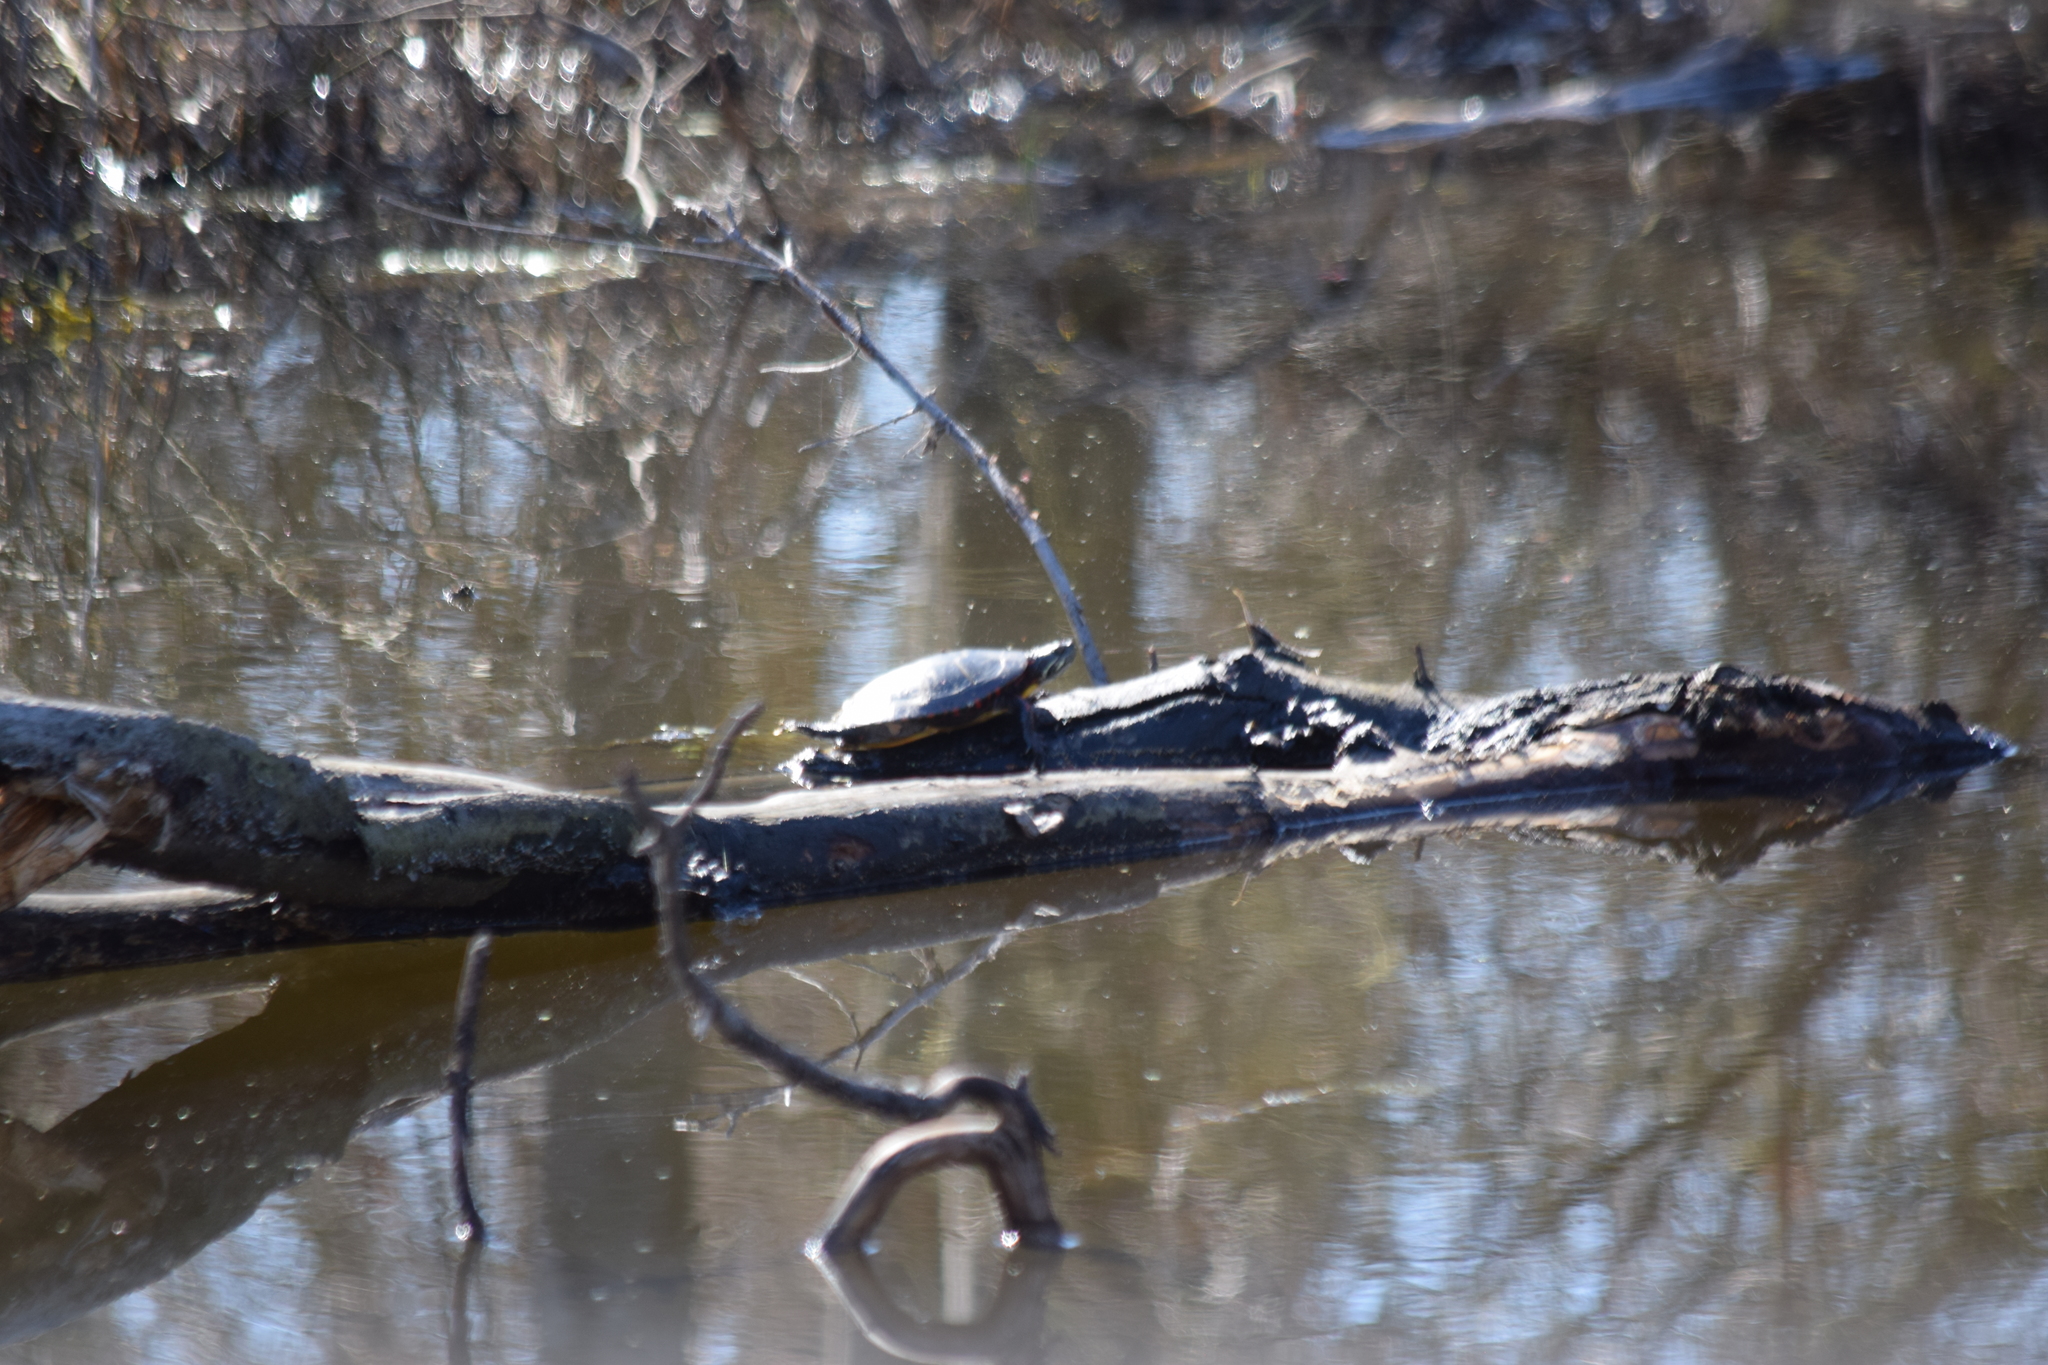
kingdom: Animalia
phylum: Chordata
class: Testudines
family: Emydidae
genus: Chrysemys
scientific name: Chrysemys picta
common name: Painted turtle
